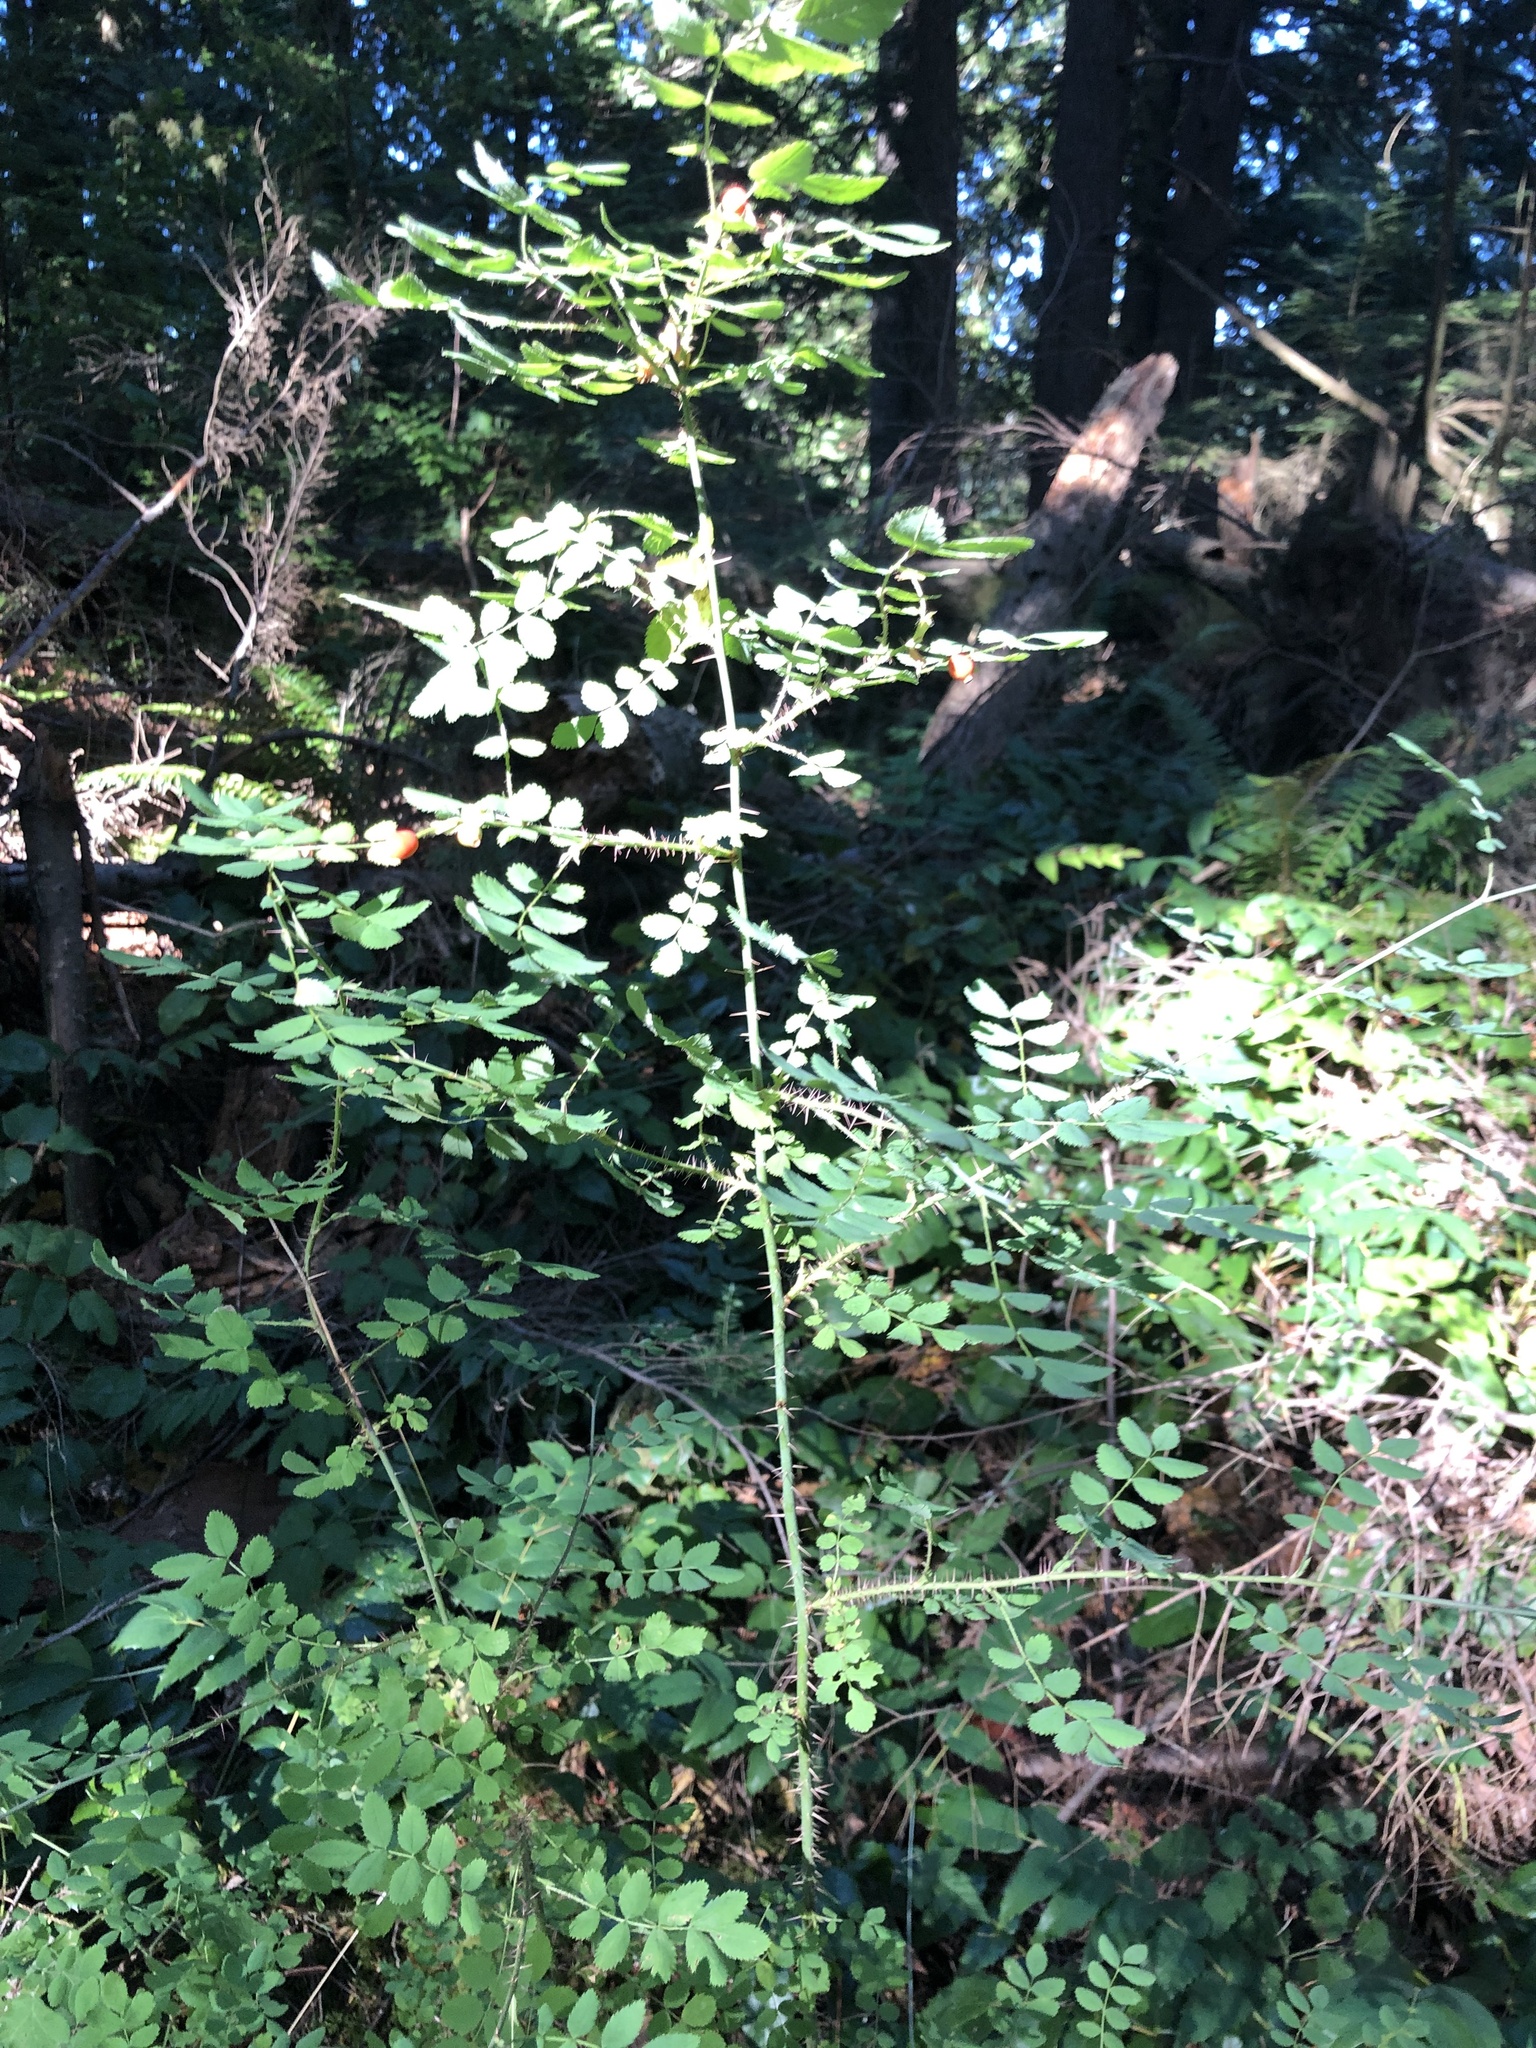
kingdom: Plantae
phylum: Tracheophyta
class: Magnoliopsida
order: Rosales
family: Rosaceae
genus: Rosa
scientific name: Rosa gymnocarpa
